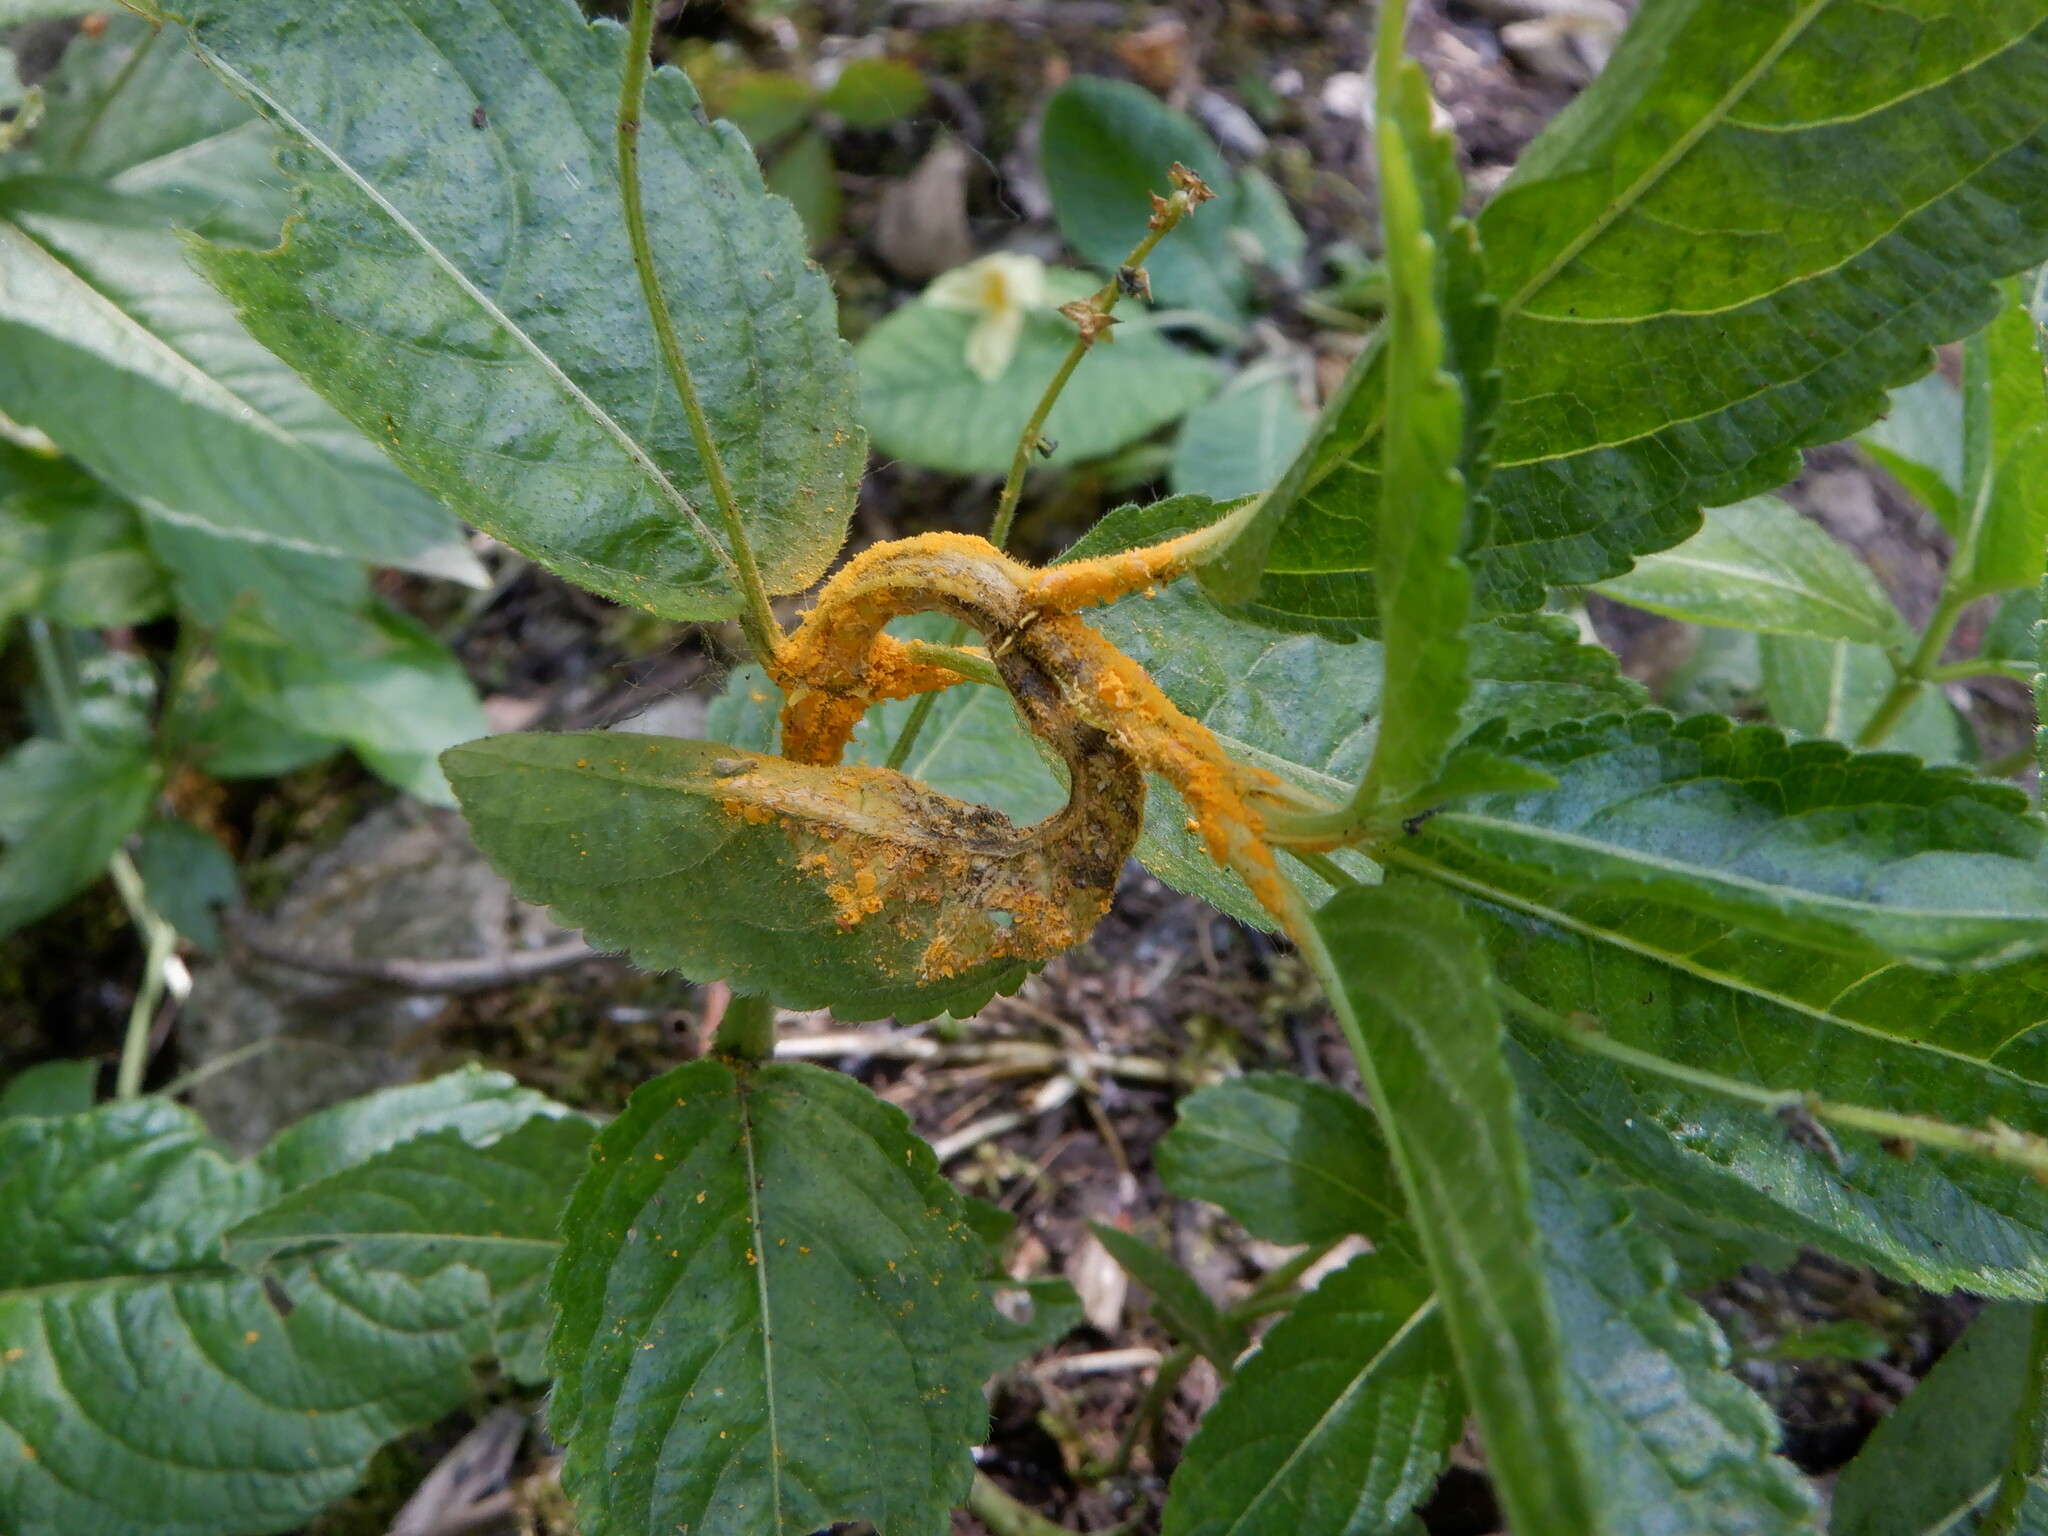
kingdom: Fungi
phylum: Basidiomycota
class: Pucciniomycetes
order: Pucciniales
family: Melampsoraceae
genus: Melampsora
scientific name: Melampsora rostrupii
